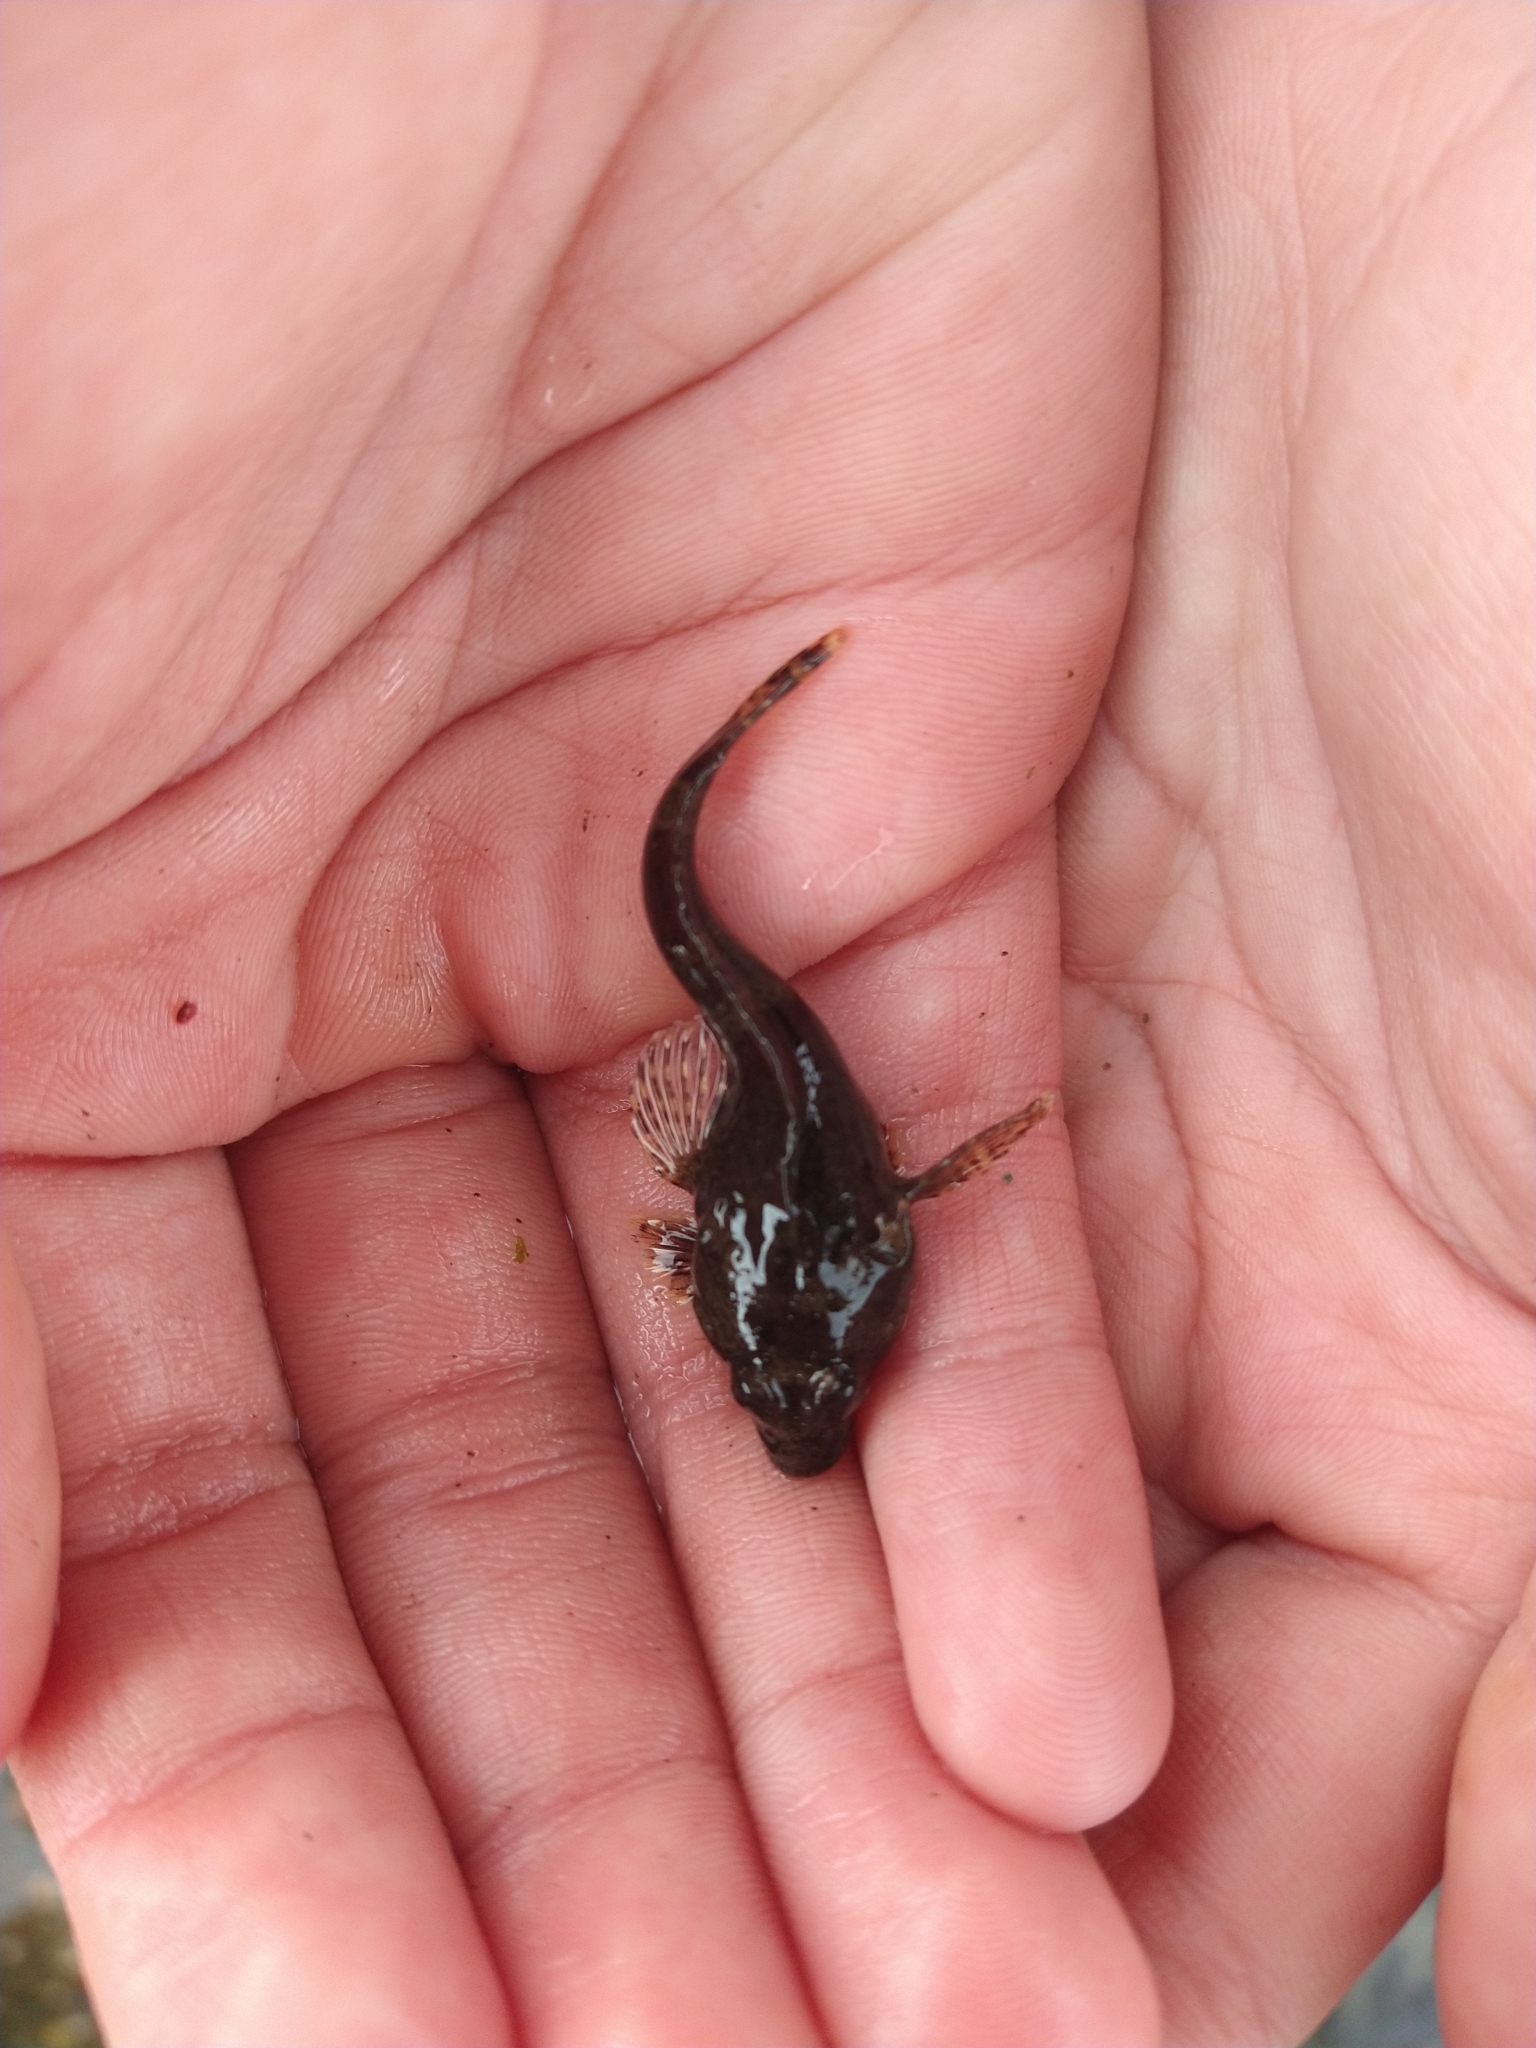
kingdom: Animalia
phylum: Chordata
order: Perciformes
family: Harpagiferidae
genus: Harpagifer
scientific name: Harpagifer bispinis
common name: Magellan plunderfish
